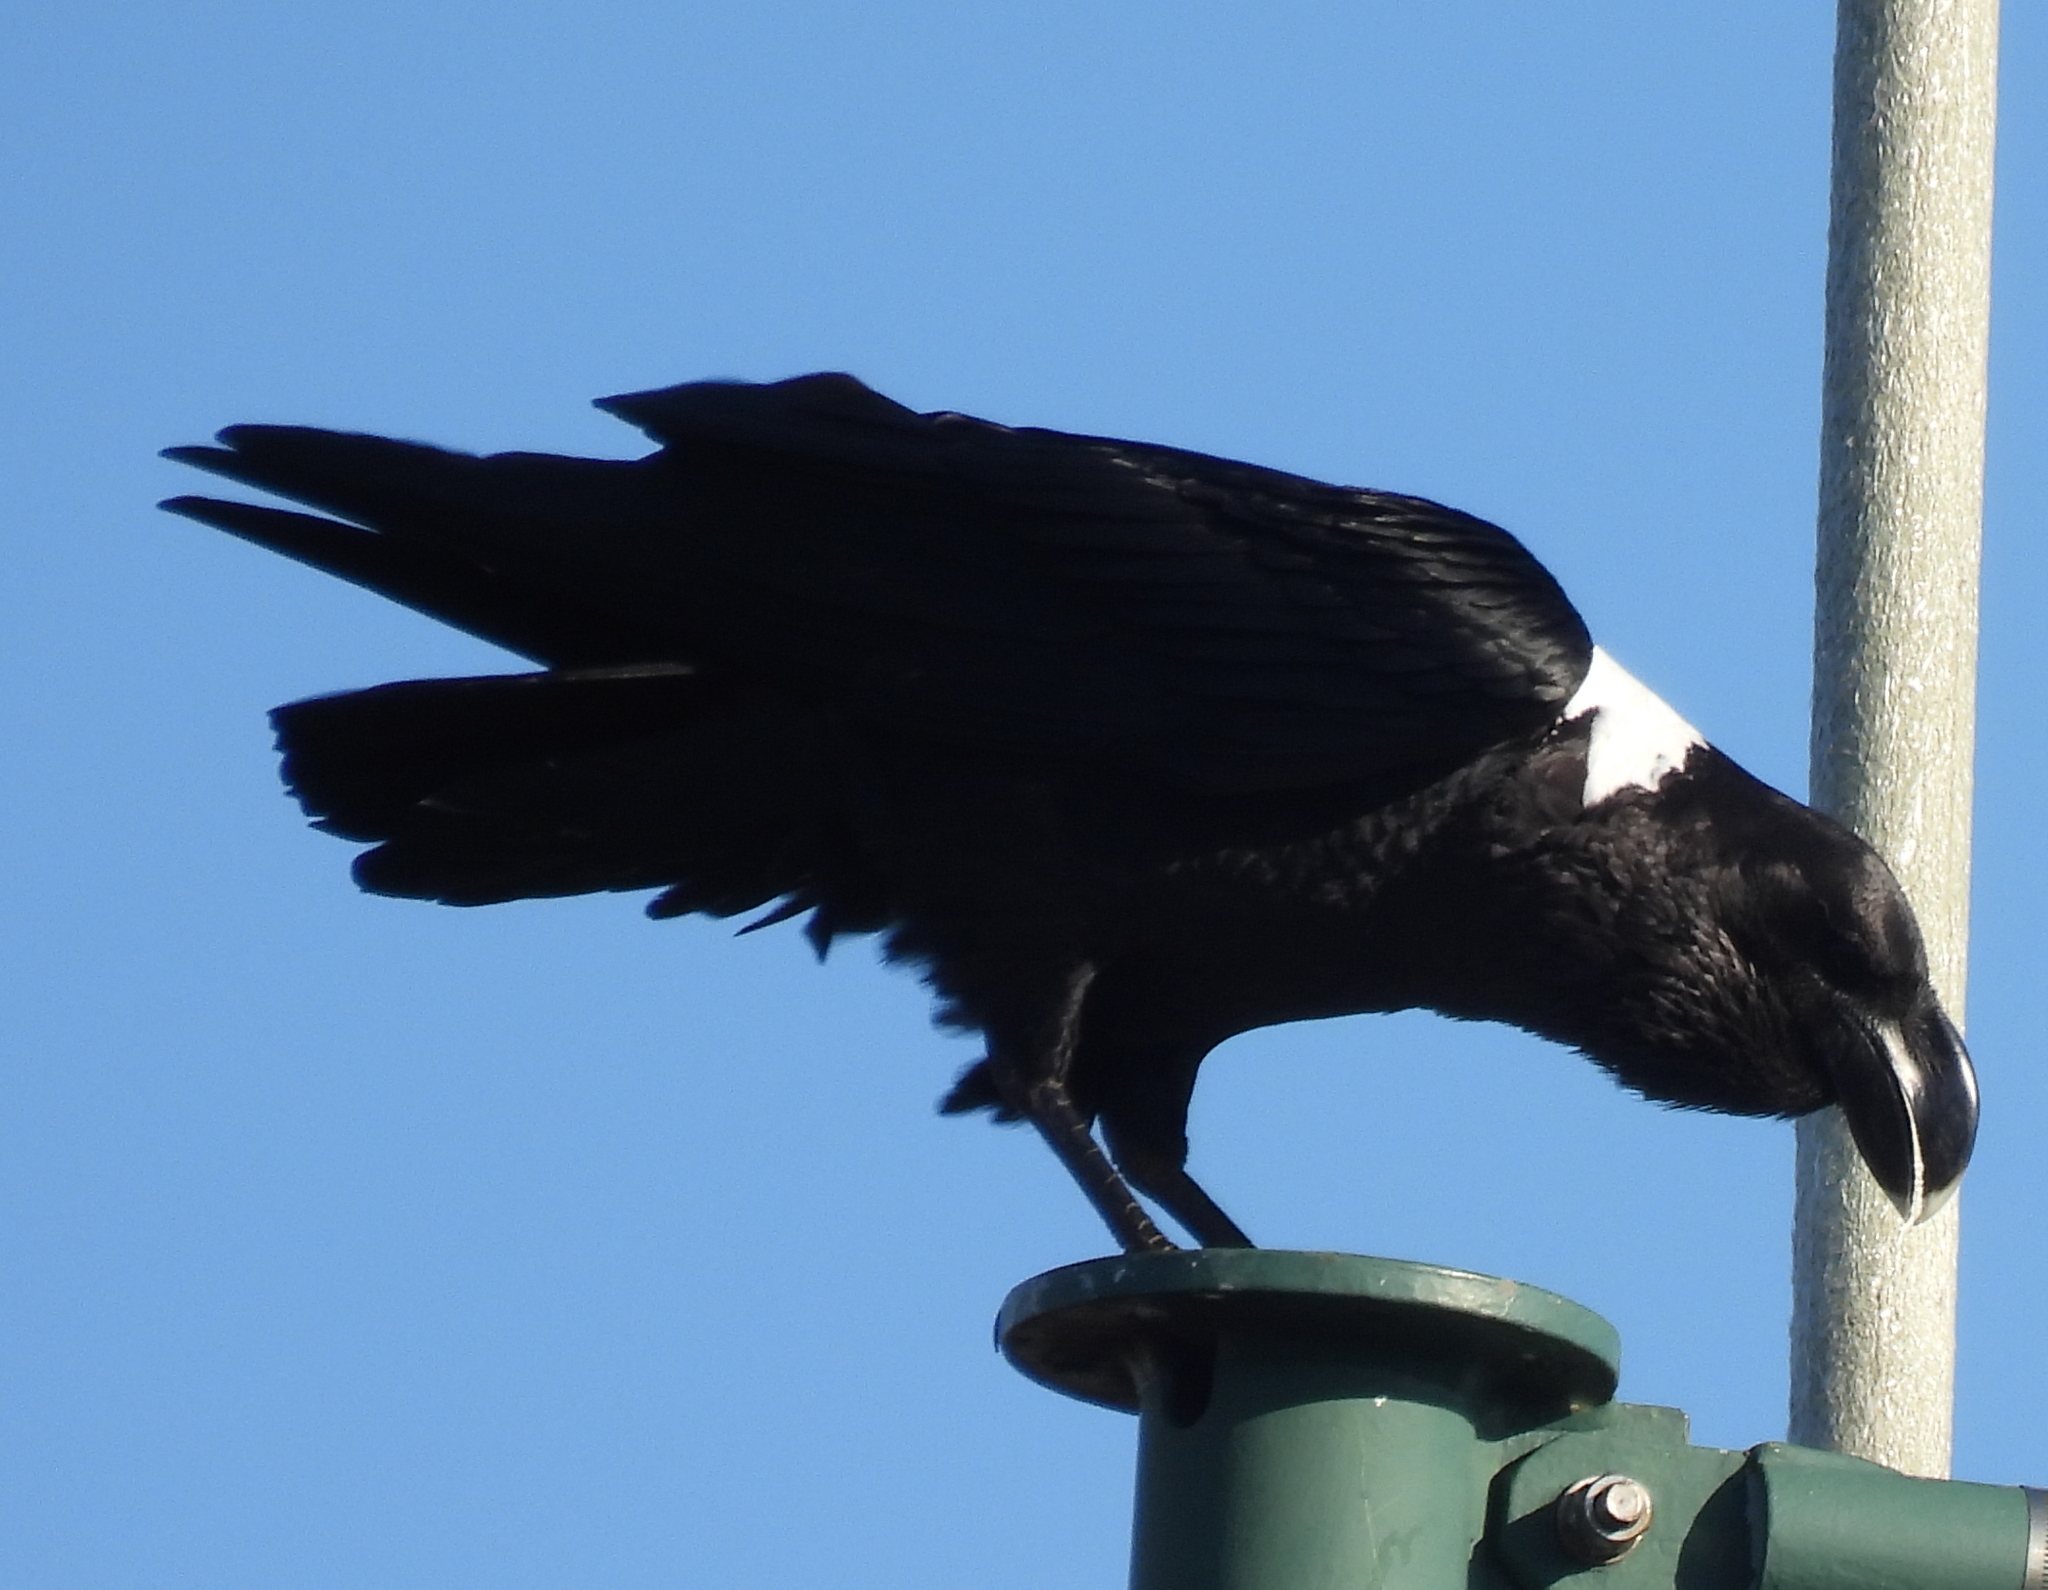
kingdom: Animalia
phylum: Chordata
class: Aves
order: Passeriformes
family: Corvidae
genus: Corvus
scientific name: Corvus albicollis
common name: White-necked raven
